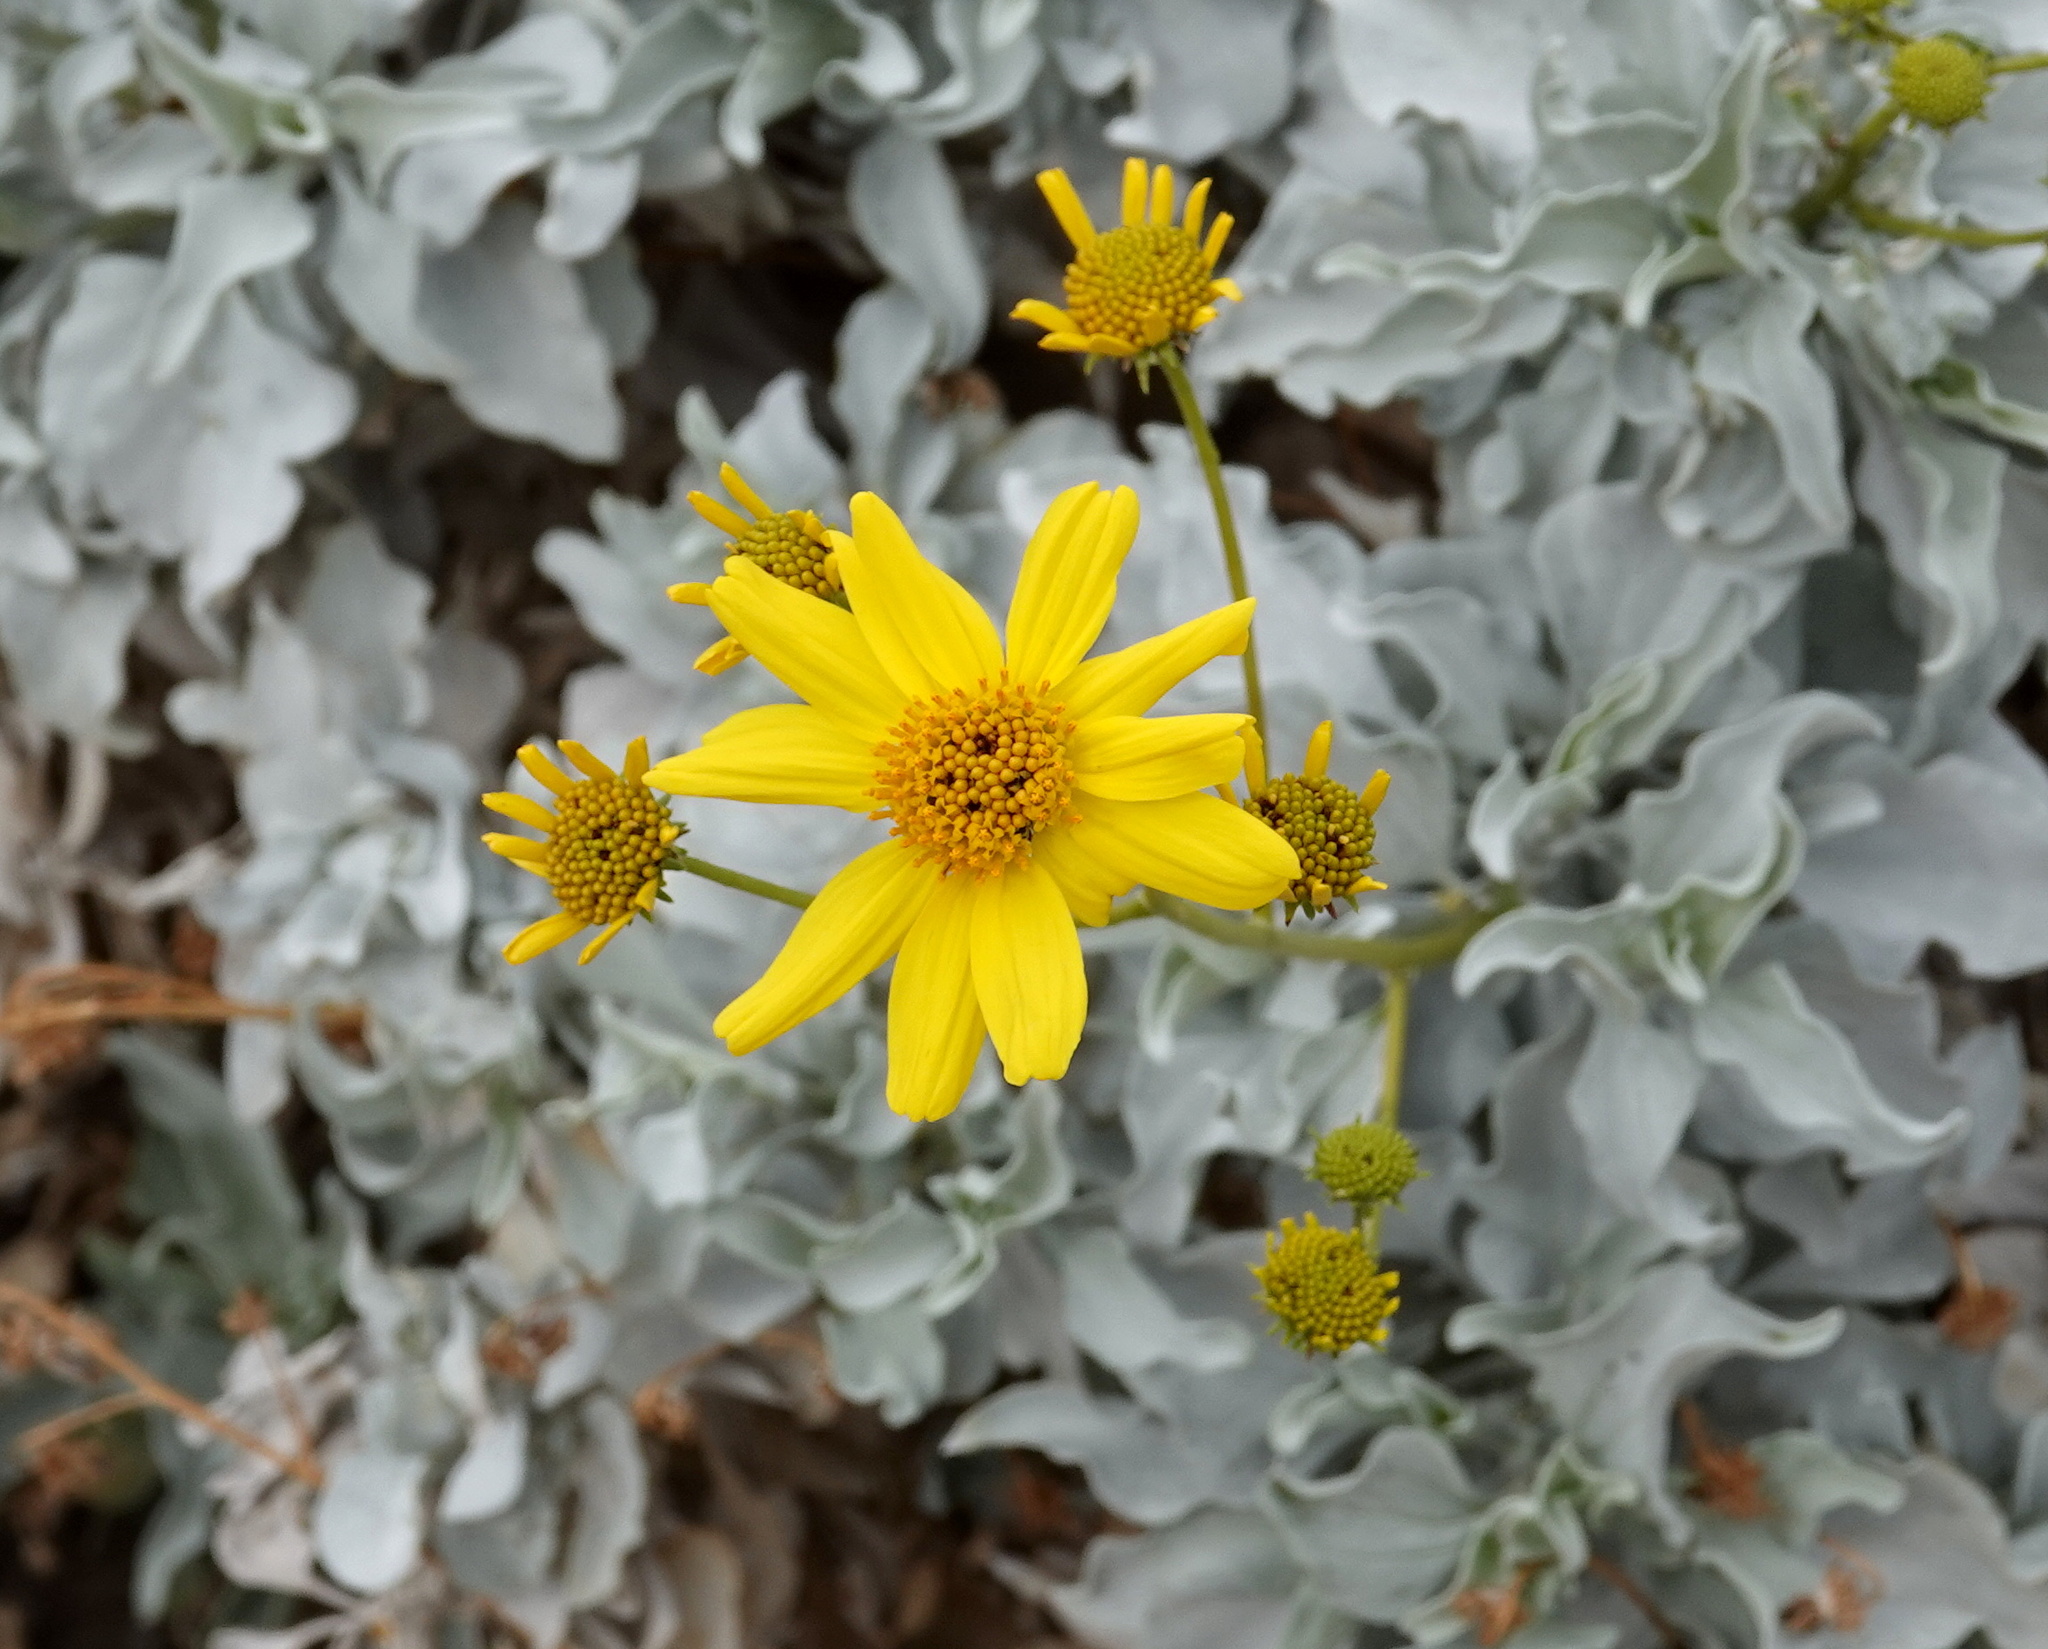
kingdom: Plantae
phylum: Tracheophyta
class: Magnoliopsida
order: Asterales
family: Asteraceae
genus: Encelia
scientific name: Encelia farinosa
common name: Brittlebush
